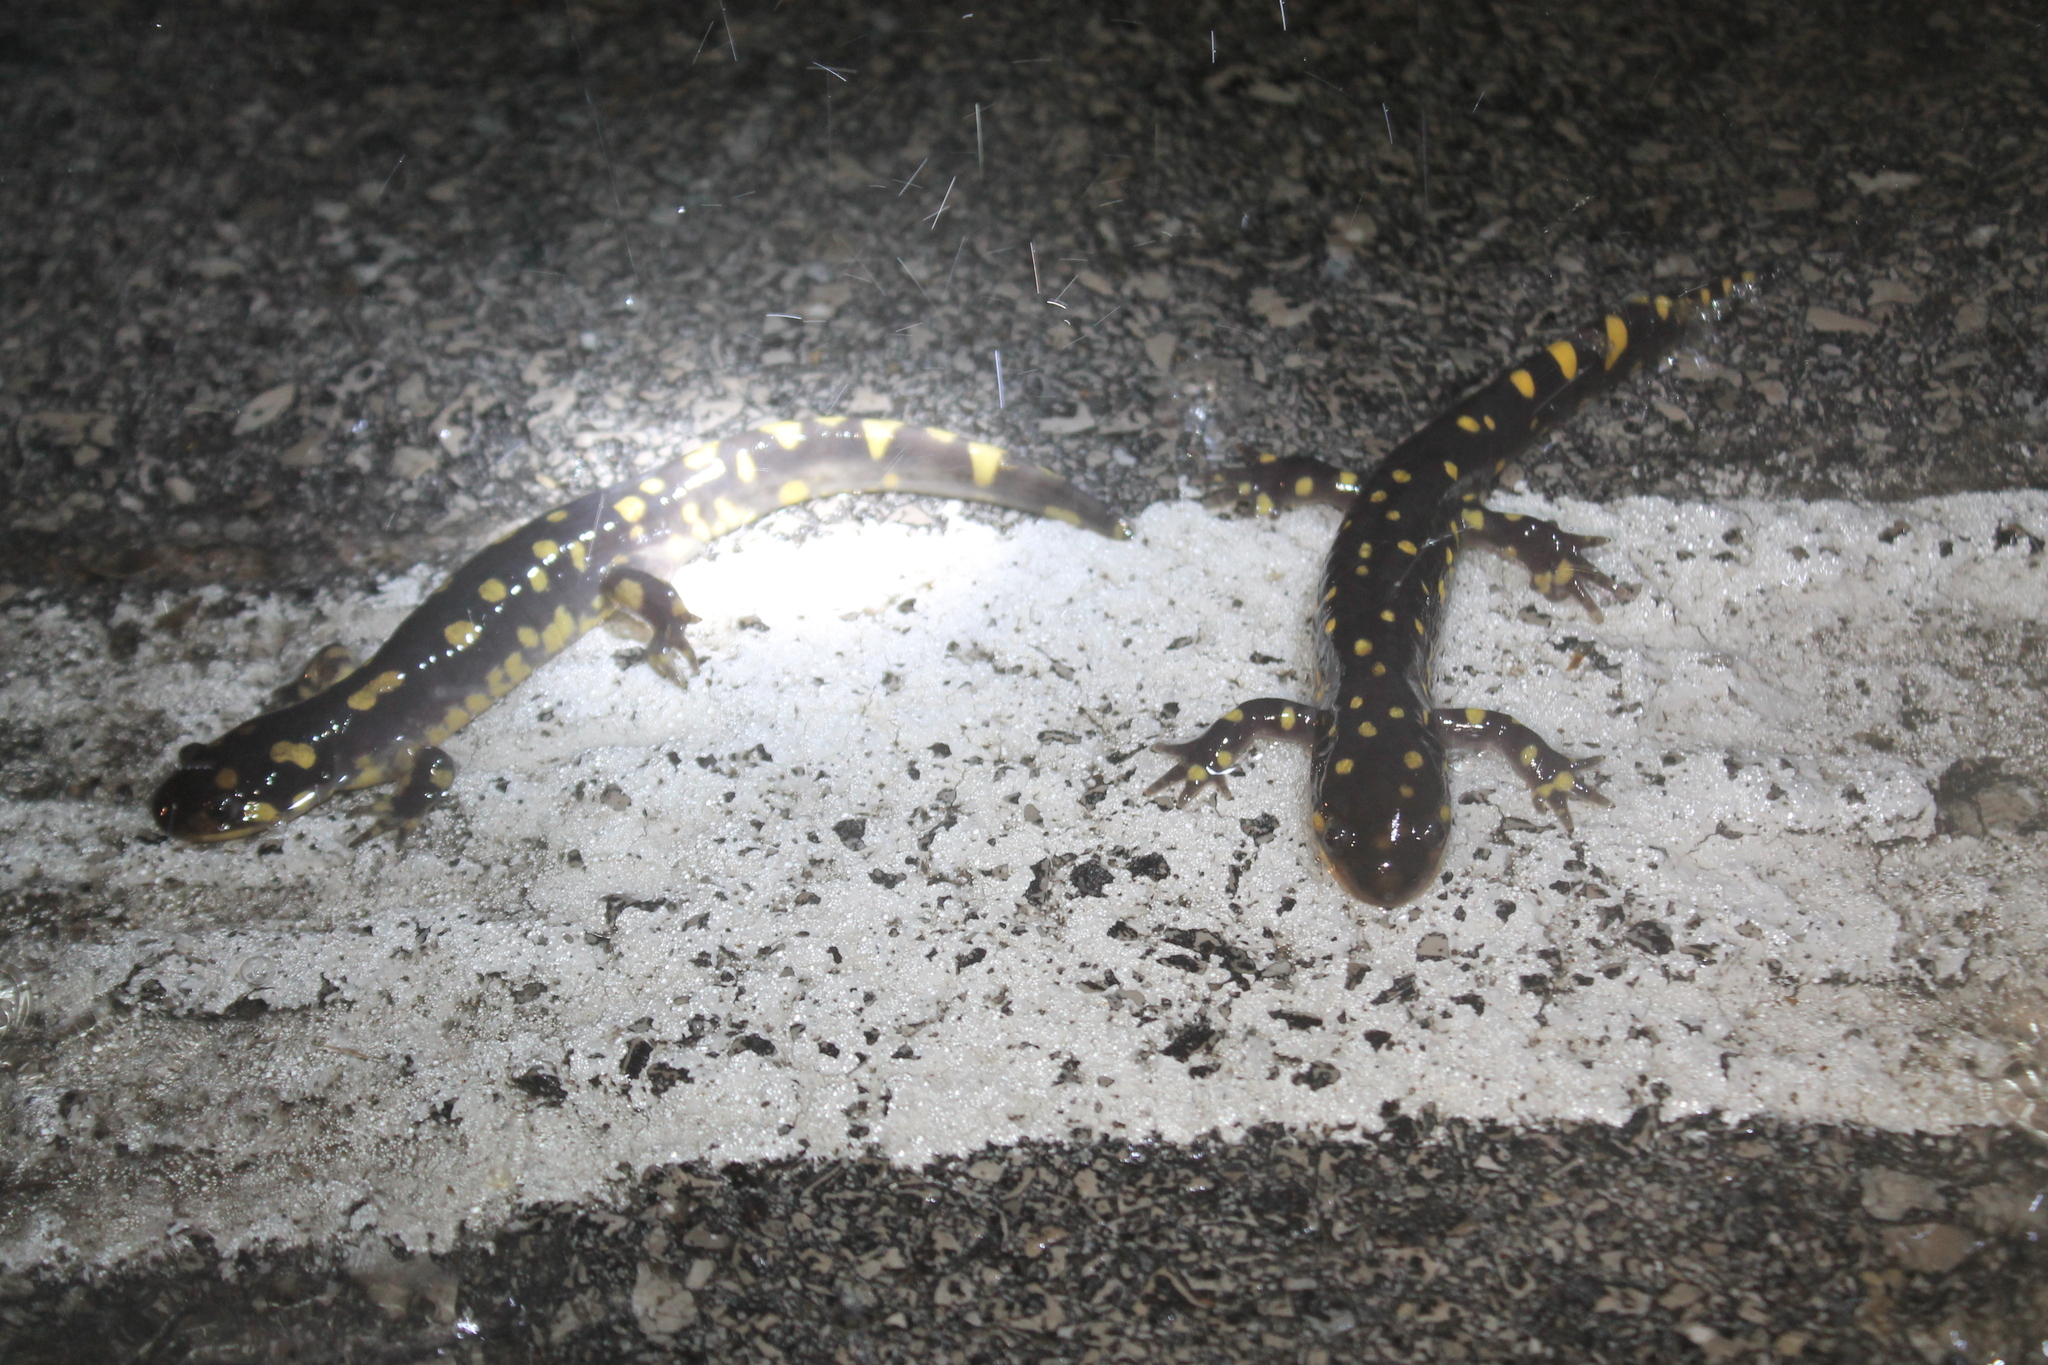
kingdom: Animalia
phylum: Chordata
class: Amphibia
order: Caudata
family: Ambystomatidae
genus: Ambystoma
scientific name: Ambystoma tigrinum
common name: Tiger salamander
